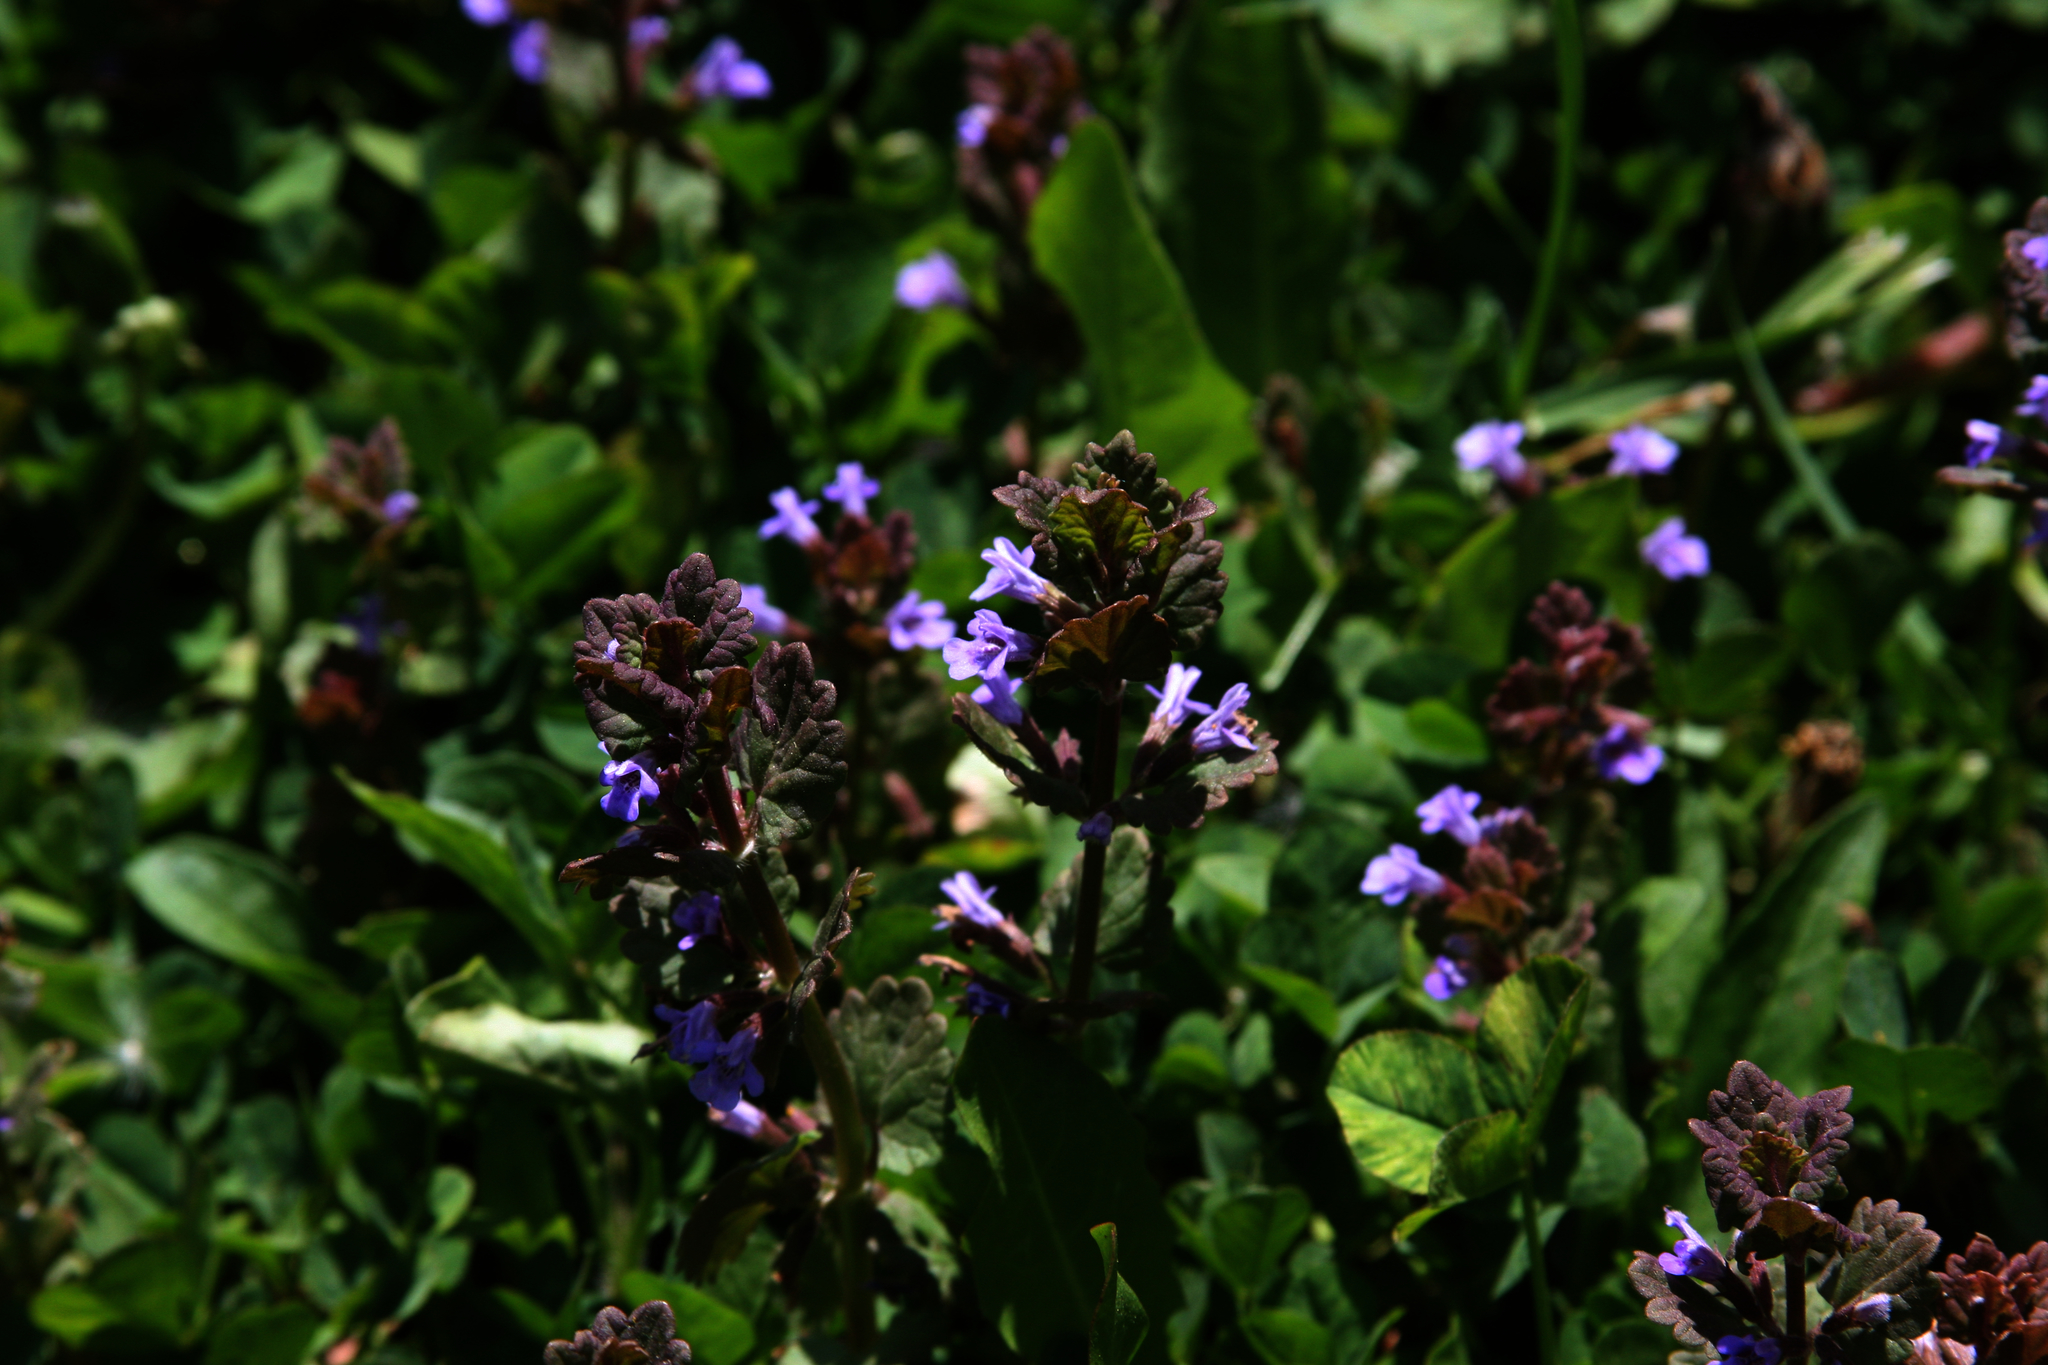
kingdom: Plantae
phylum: Tracheophyta
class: Magnoliopsida
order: Lamiales
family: Lamiaceae
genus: Glechoma
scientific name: Glechoma hederacea
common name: Ground ivy
